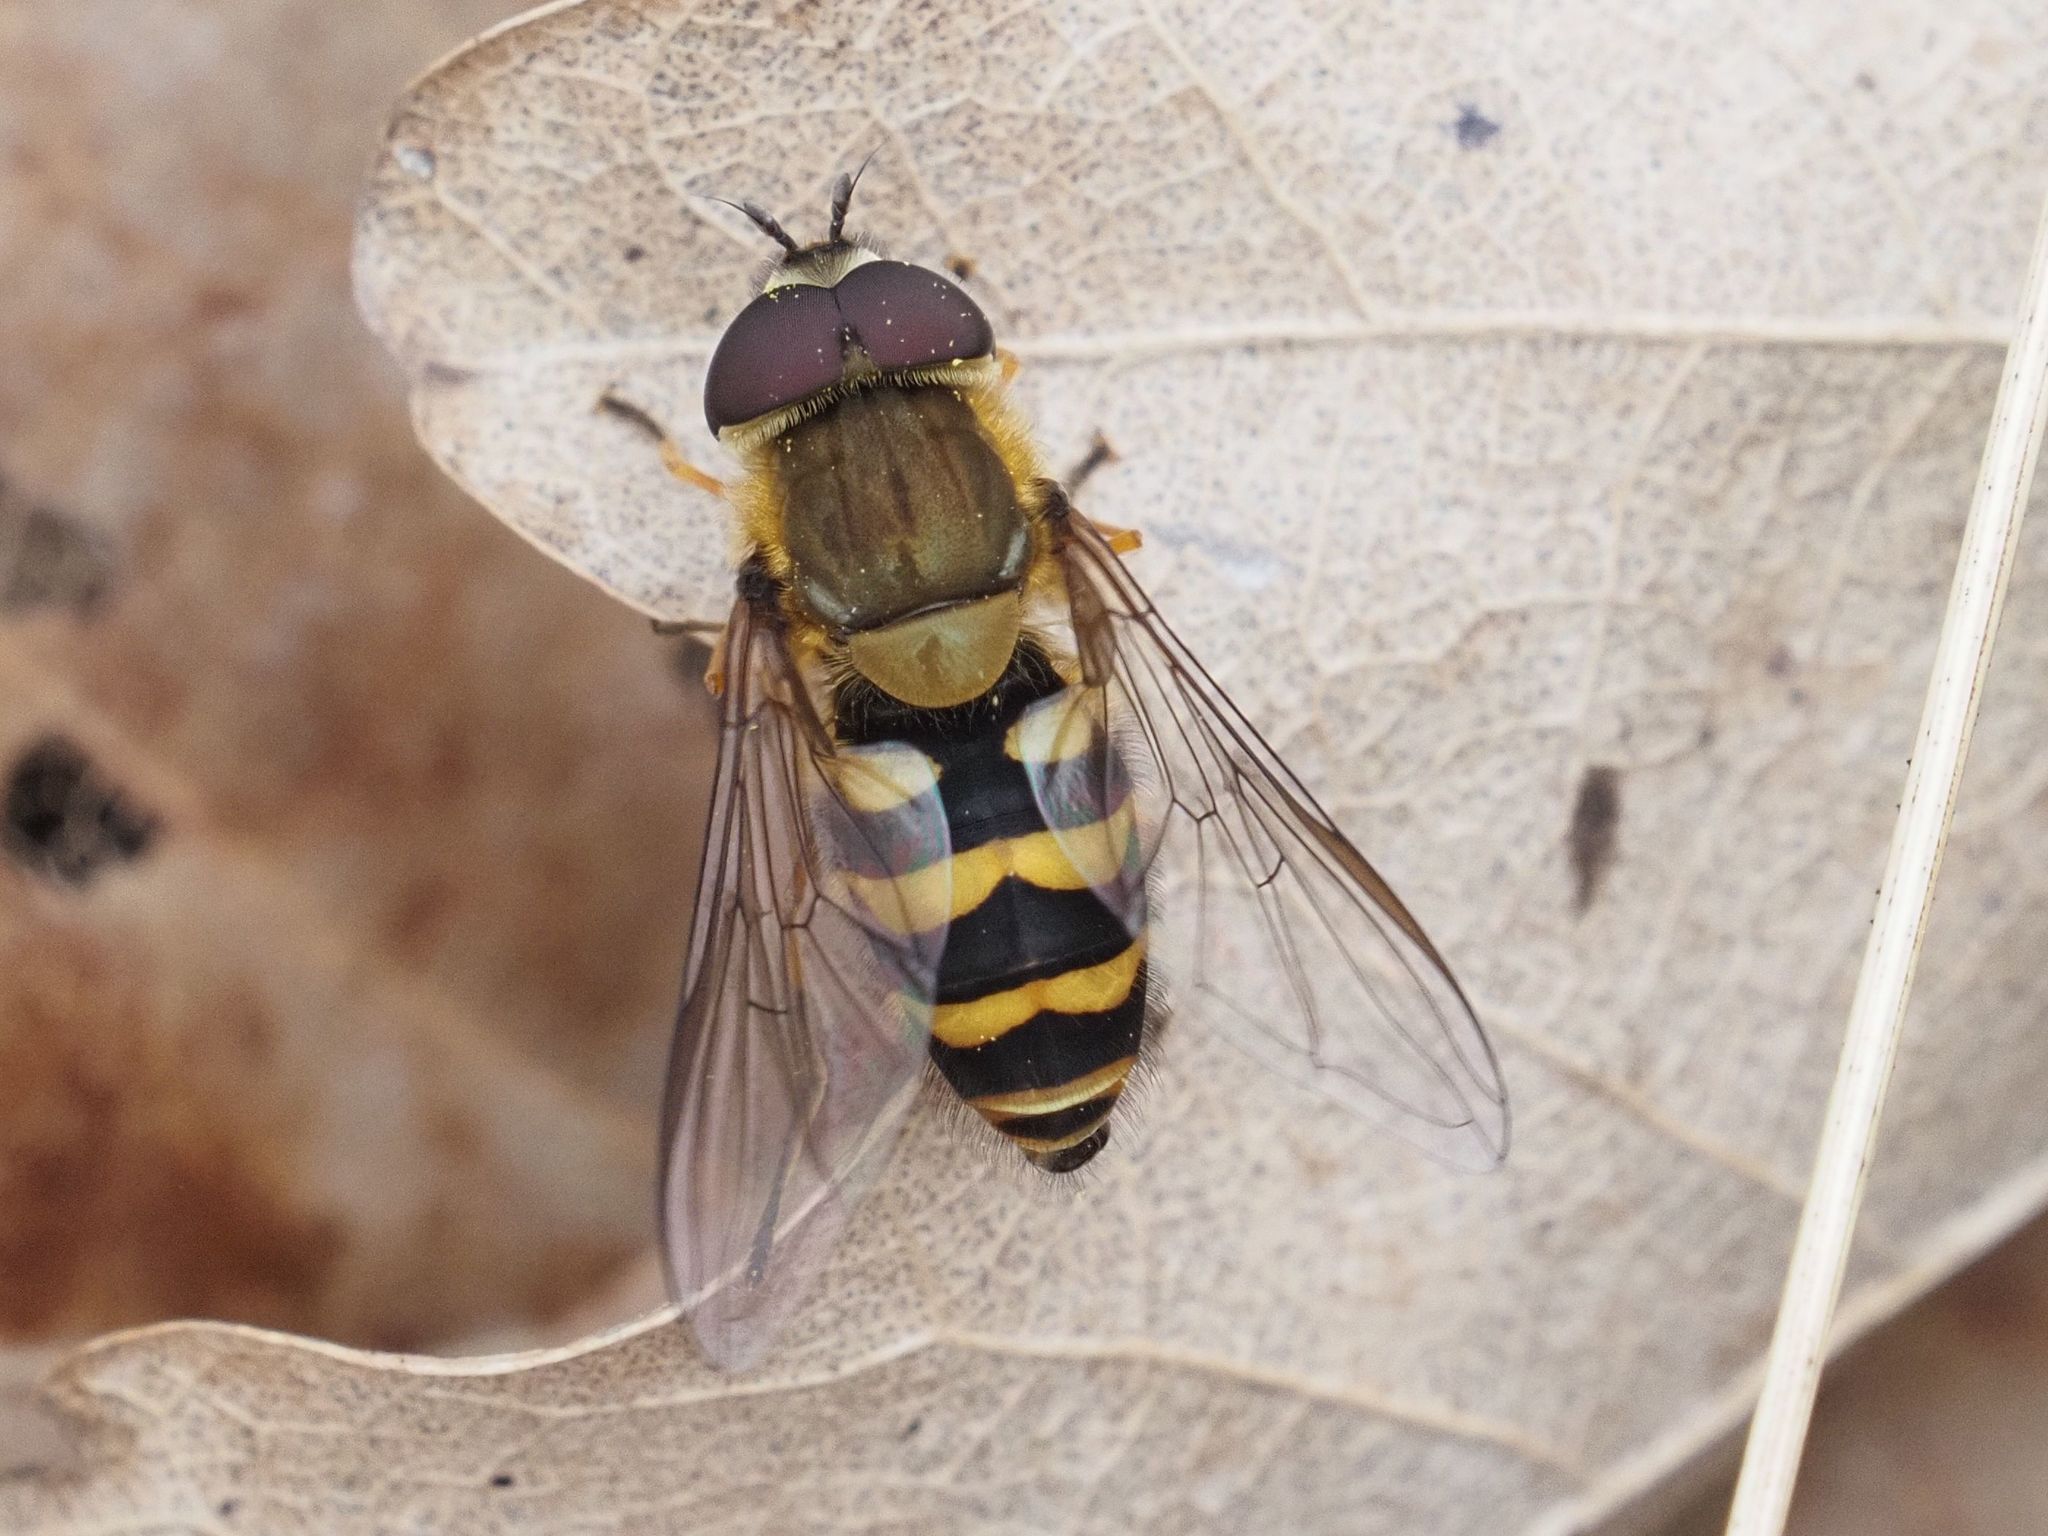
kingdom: Animalia
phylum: Arthropoda
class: Insecta
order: Diptera
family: Syrphidae
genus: Syrphus
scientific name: Syrphus torvus
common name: Hairy-eyed flower fly
